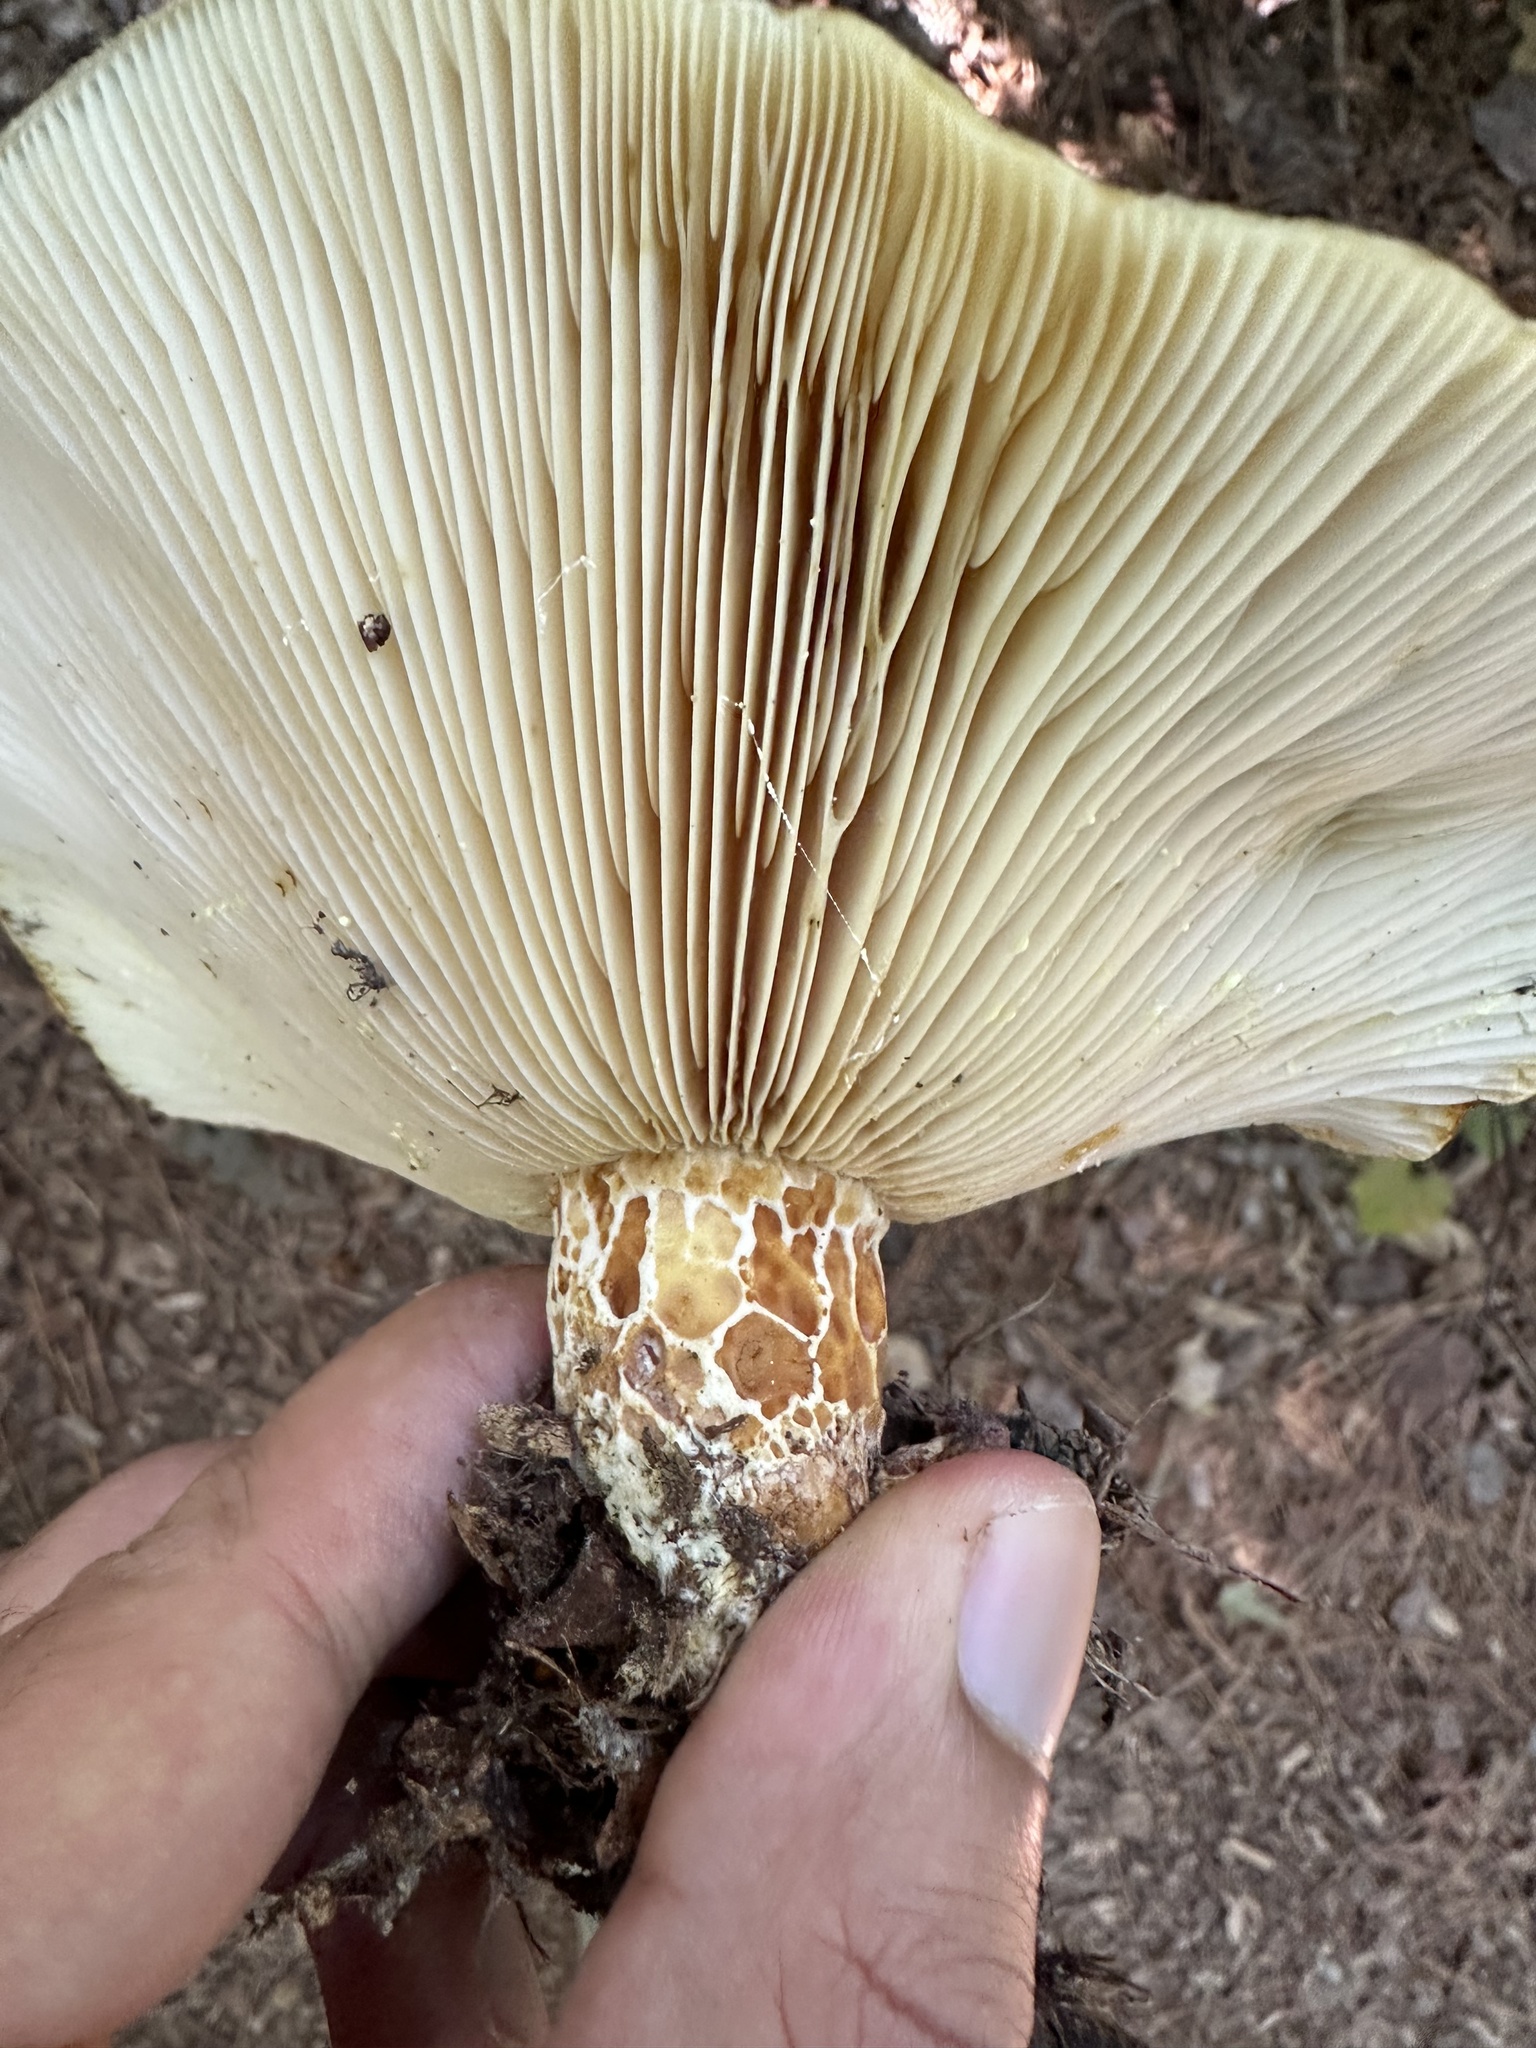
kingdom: Fungi
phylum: Basidiomycota
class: Agaricomycetes
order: Russulales
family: Russulaceae
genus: Lactarius
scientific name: Lactarius maculatipes
